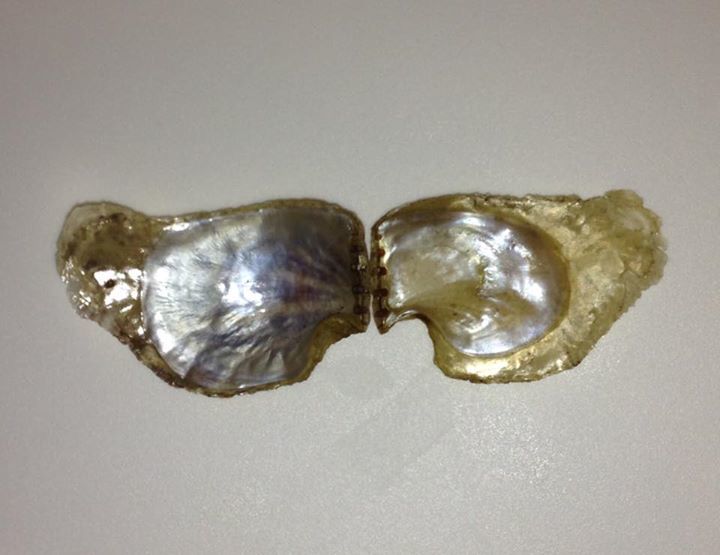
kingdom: Animalia
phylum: Mollusca
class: Bivalvia
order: Ostreida
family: Isognomonidae
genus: Isognomon
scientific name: Isognomon radiatus
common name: Radial purse-oyster
